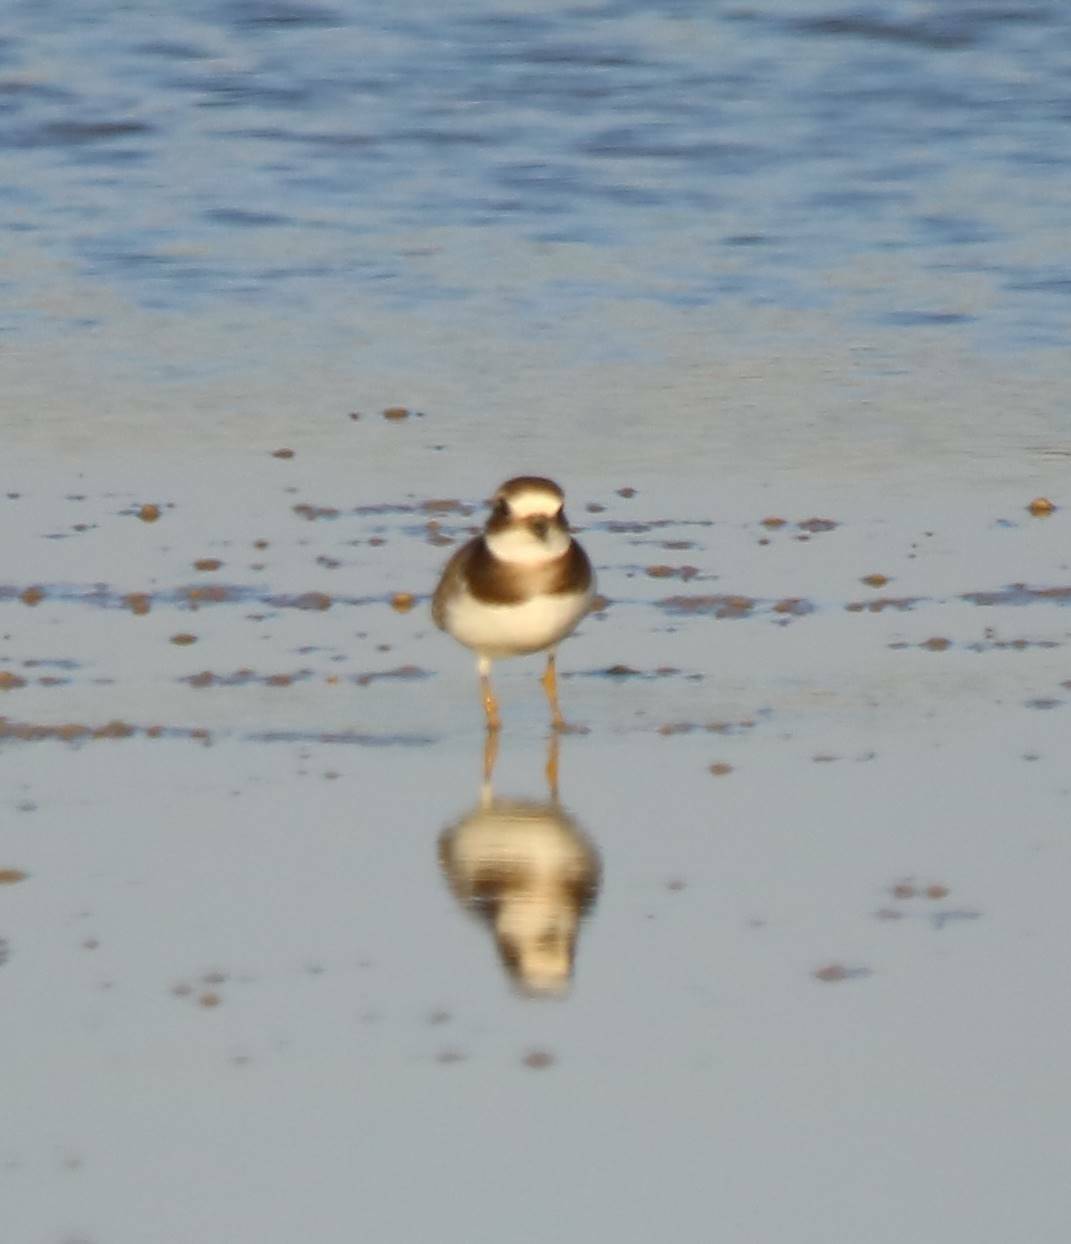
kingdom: Animalia
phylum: Chordata
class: Aves
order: Charadriiformes
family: Charadriidae
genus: Charadrius
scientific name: Charadrius hiaticula
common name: Common ringed plover
